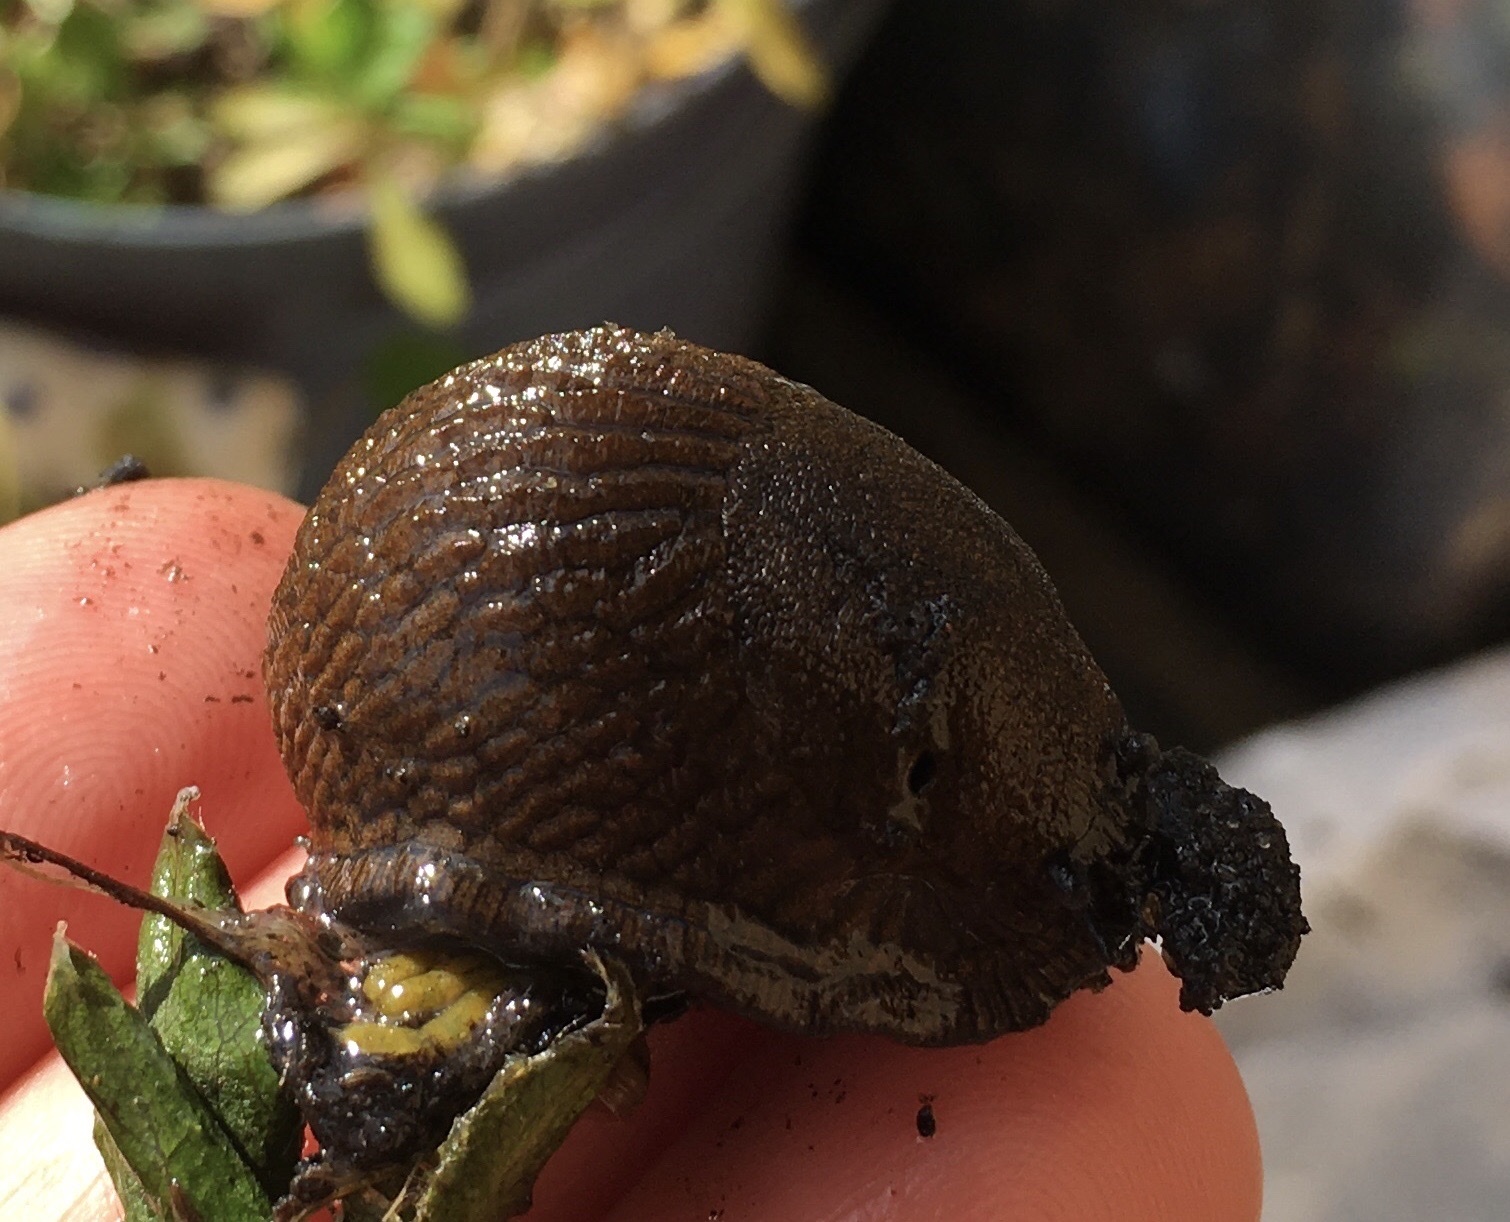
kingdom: Animalia
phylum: Mollusca
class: Gastropoda
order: Stylommatophora
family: Arionidae
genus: Arion
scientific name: Arion vulgaris
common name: Lusitanian slug
